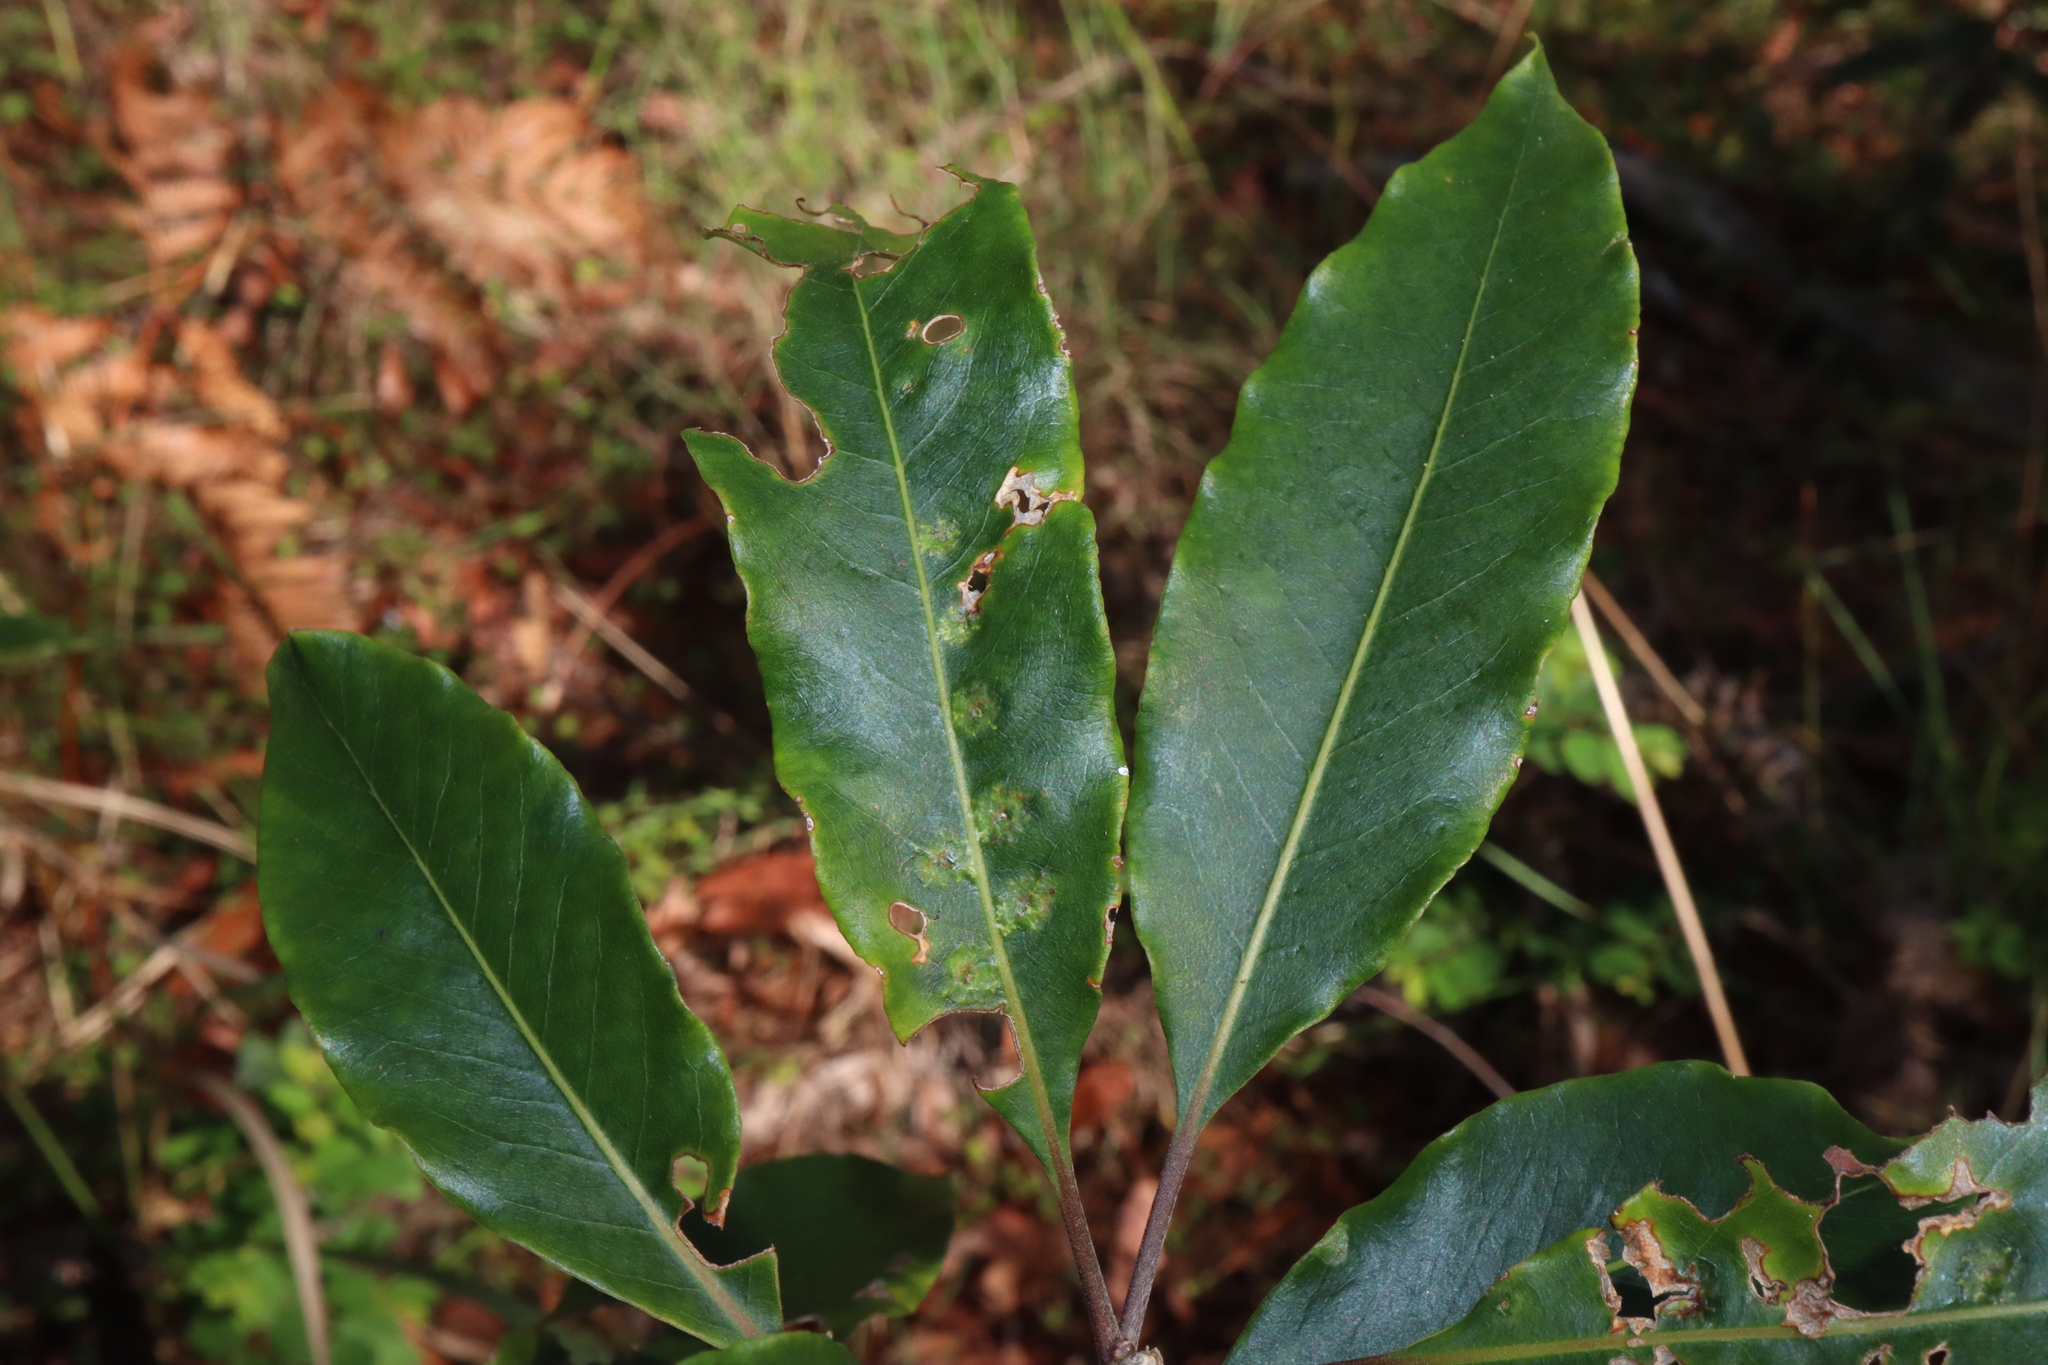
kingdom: Animalia
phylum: Arthropoda
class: Insecta
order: Diptera
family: Agromyzidae
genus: Phytoliriomyza
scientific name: Phytoliriomyza pittosporophylli
